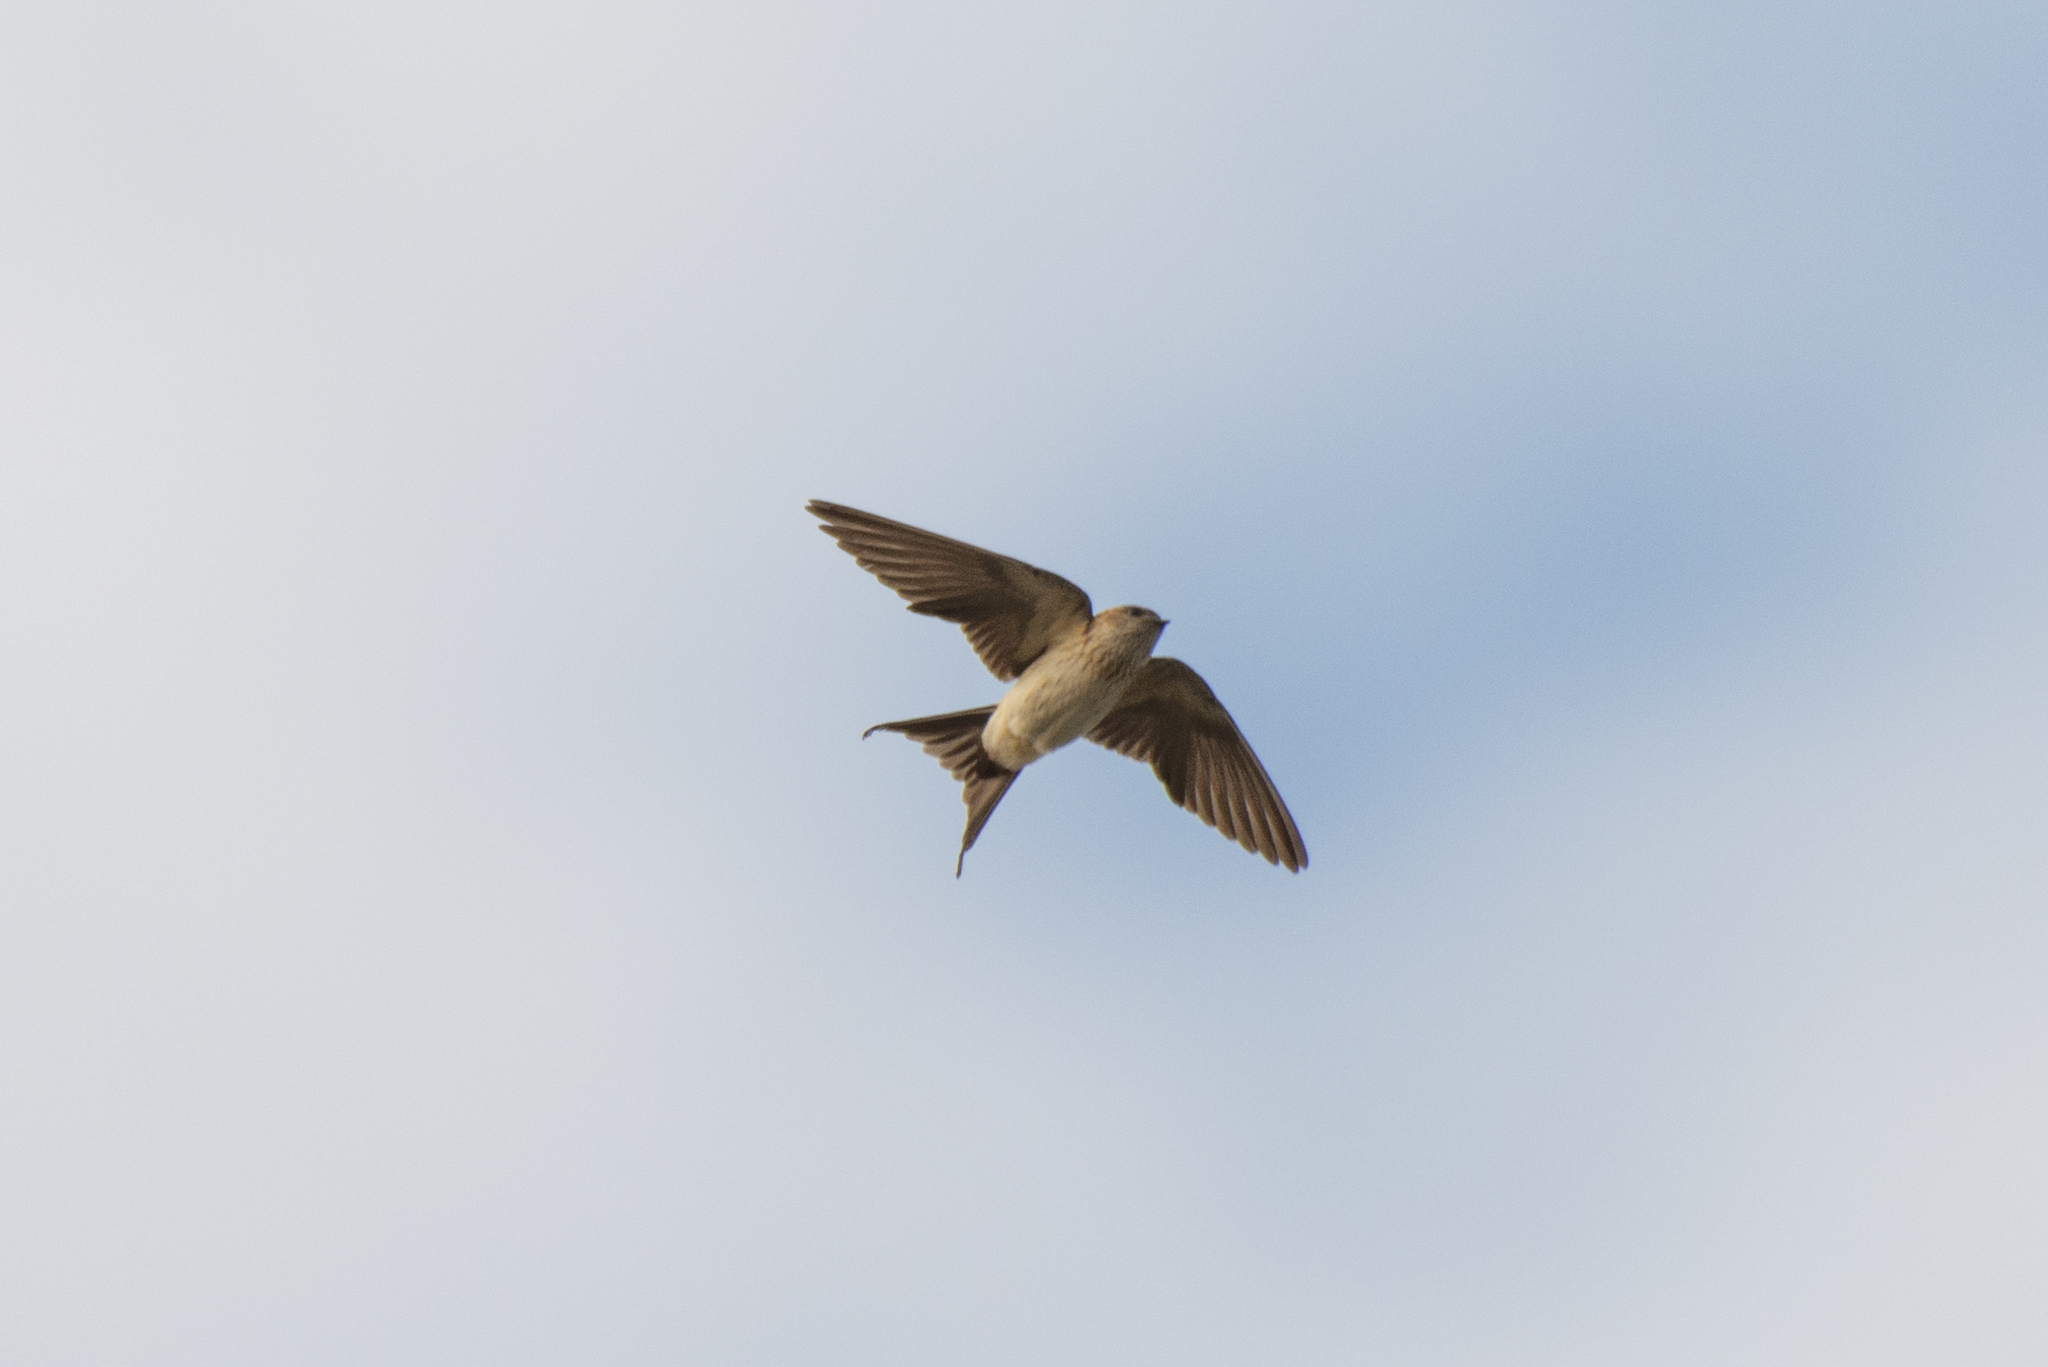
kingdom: Animalia
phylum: Chordata
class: Aves
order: Passeriformes
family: Hirundinidae
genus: Cecropis
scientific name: Cecropis daurica
